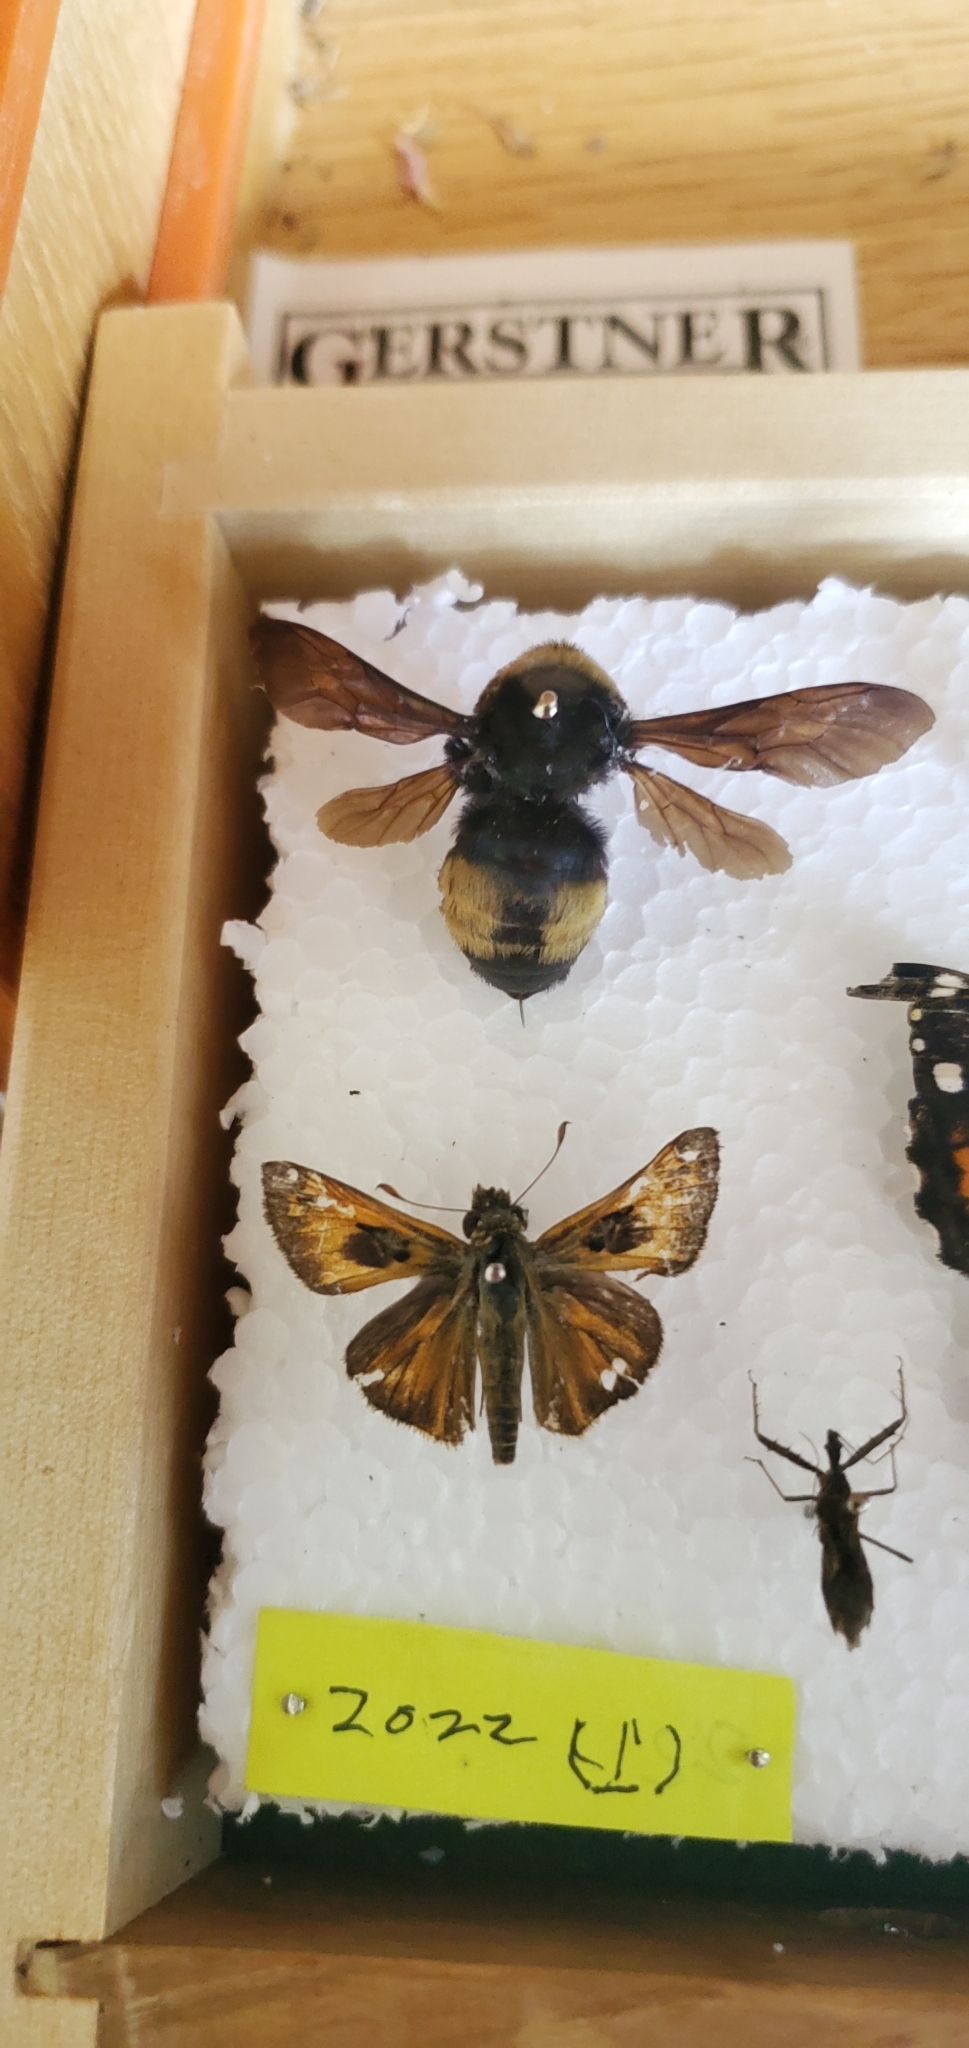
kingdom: Animalia
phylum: Arthropoda
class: Insecta
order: Hymenoptera
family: Apidae
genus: Bombus
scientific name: Bombus auricomus
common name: Black and gold bumble bee
